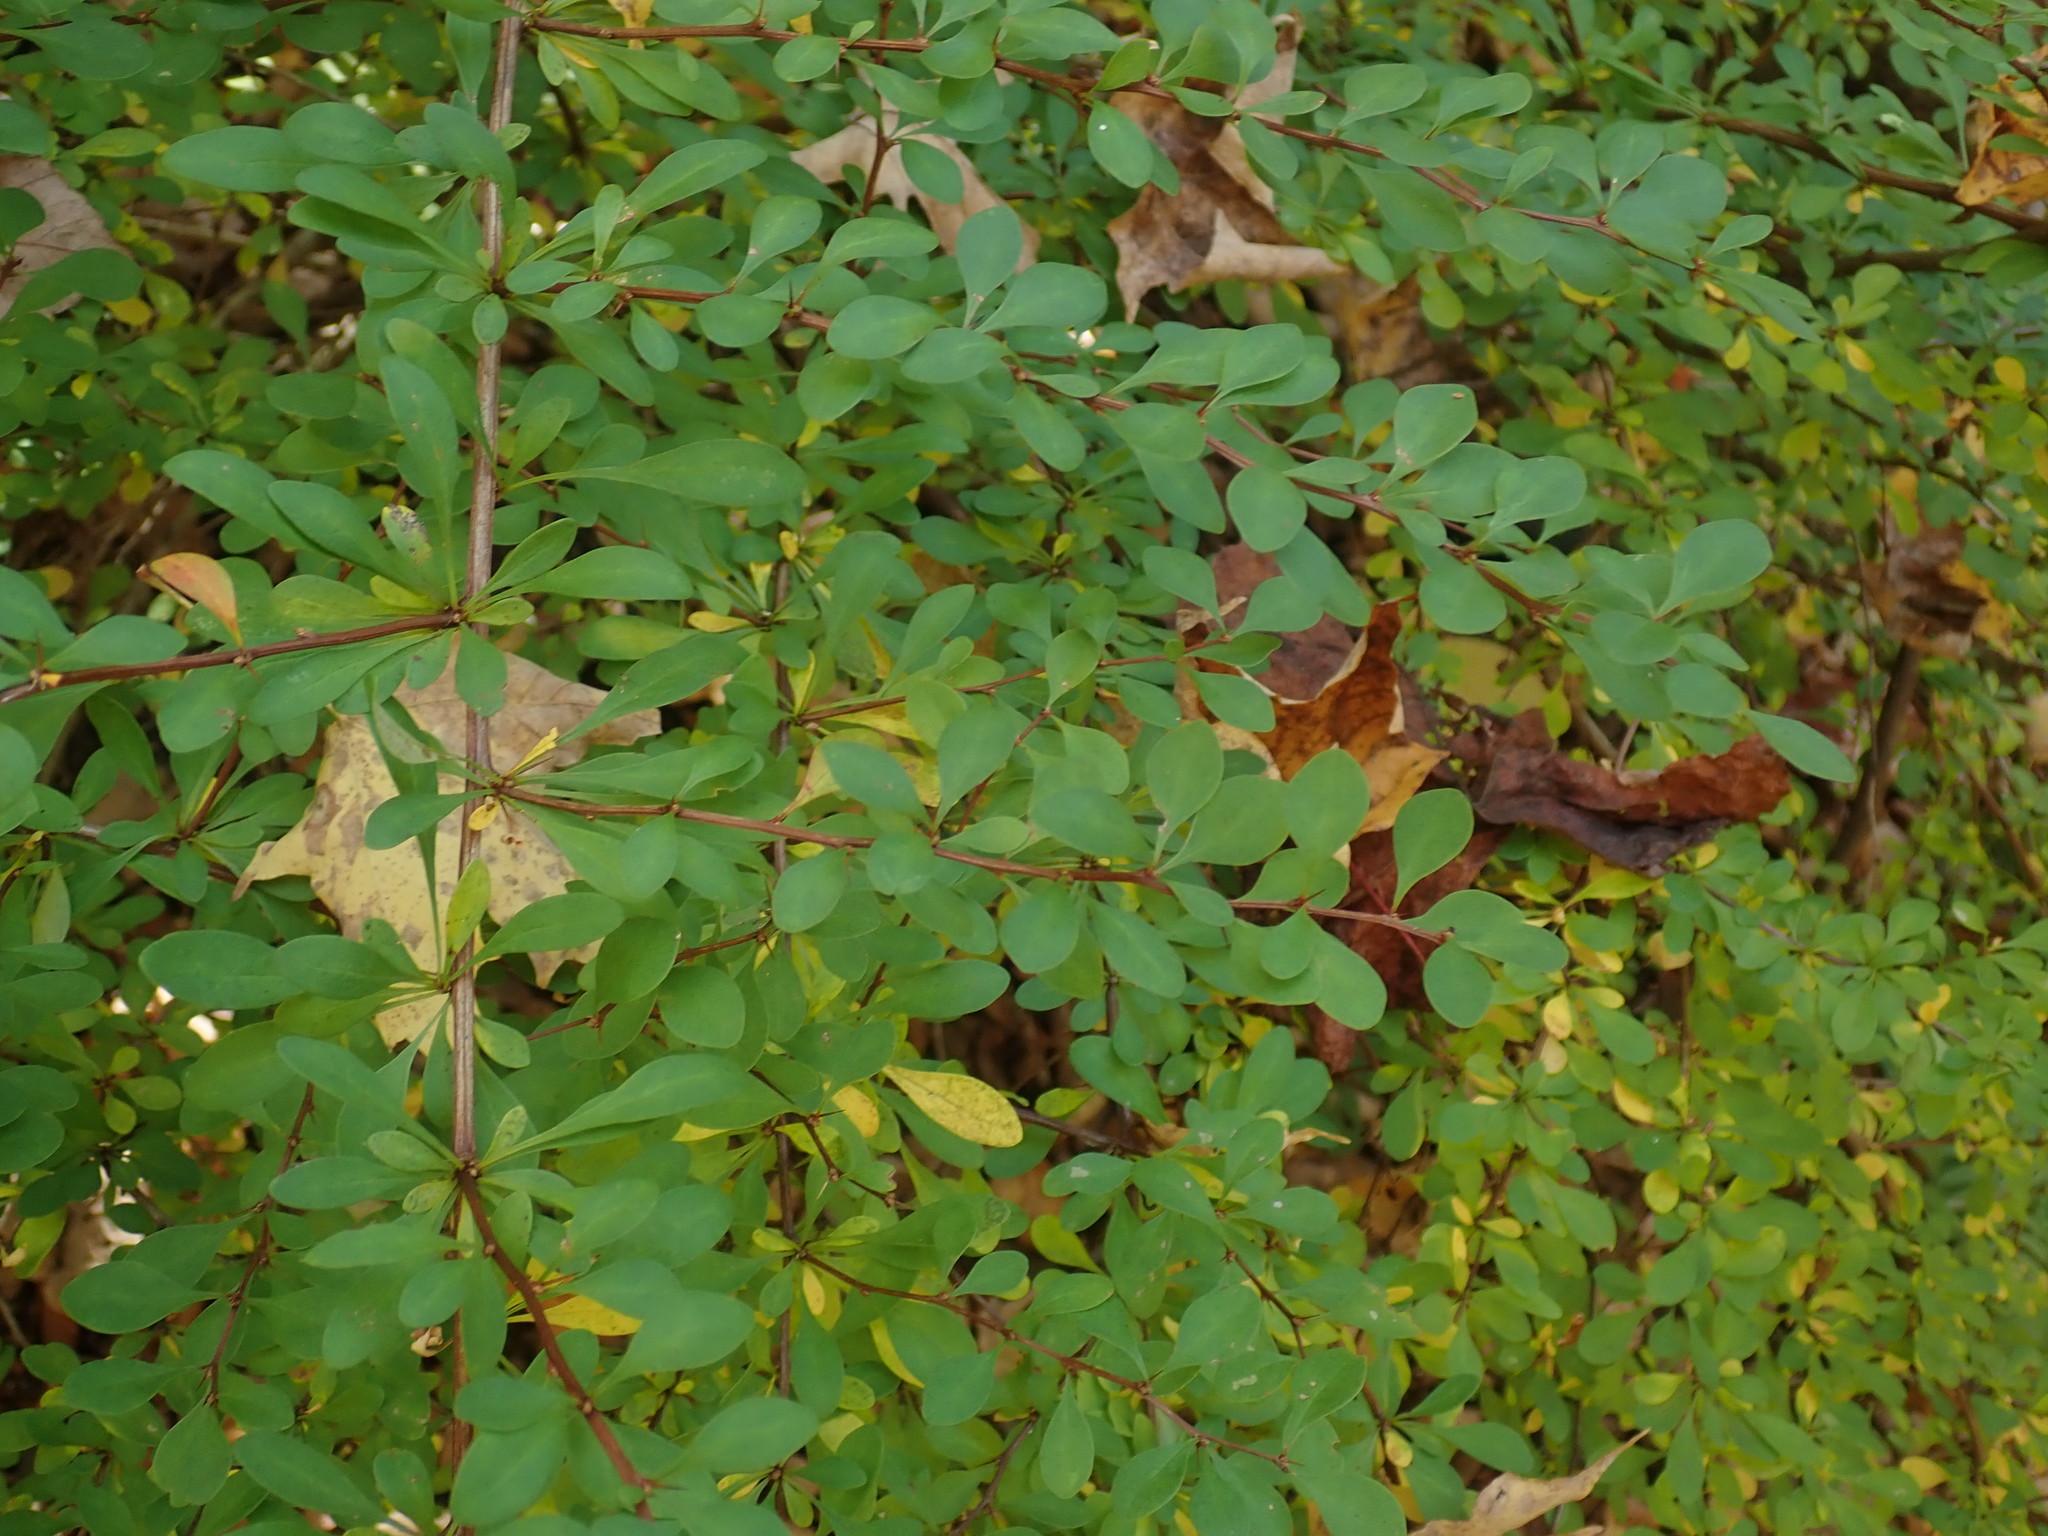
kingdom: Plantae
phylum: Tracheophyta
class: Magnoliopsida
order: Ranunculales
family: Berberidaceae
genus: Berberis
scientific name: Berberis thunbergii
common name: Japanese barberry
